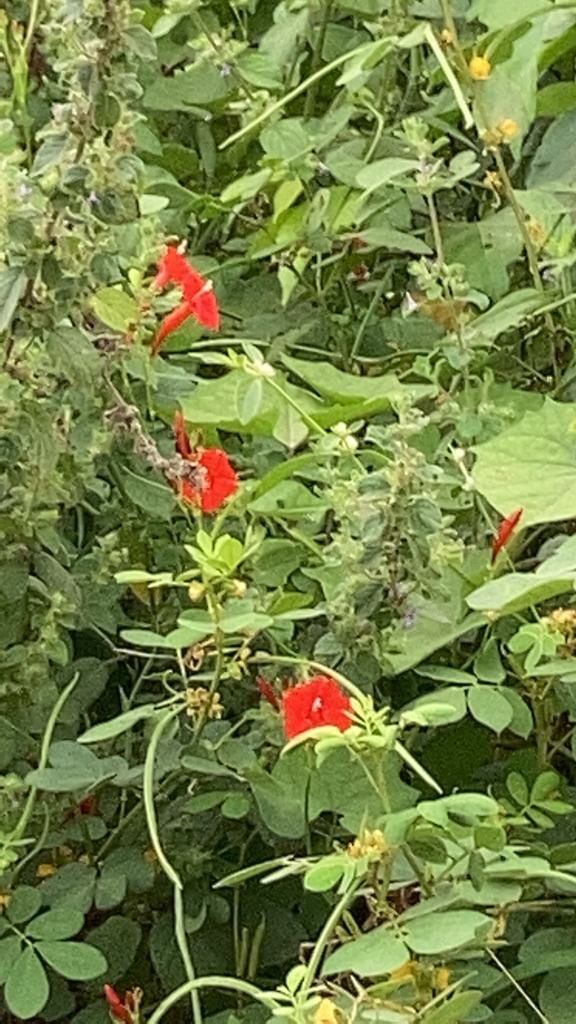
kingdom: Plantae
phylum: Tracheophyta
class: Magnoliopsida
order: Solanales
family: Convolvulaceae
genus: Ipomoea
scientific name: Ipomoea quamoclit
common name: Cypress vine
